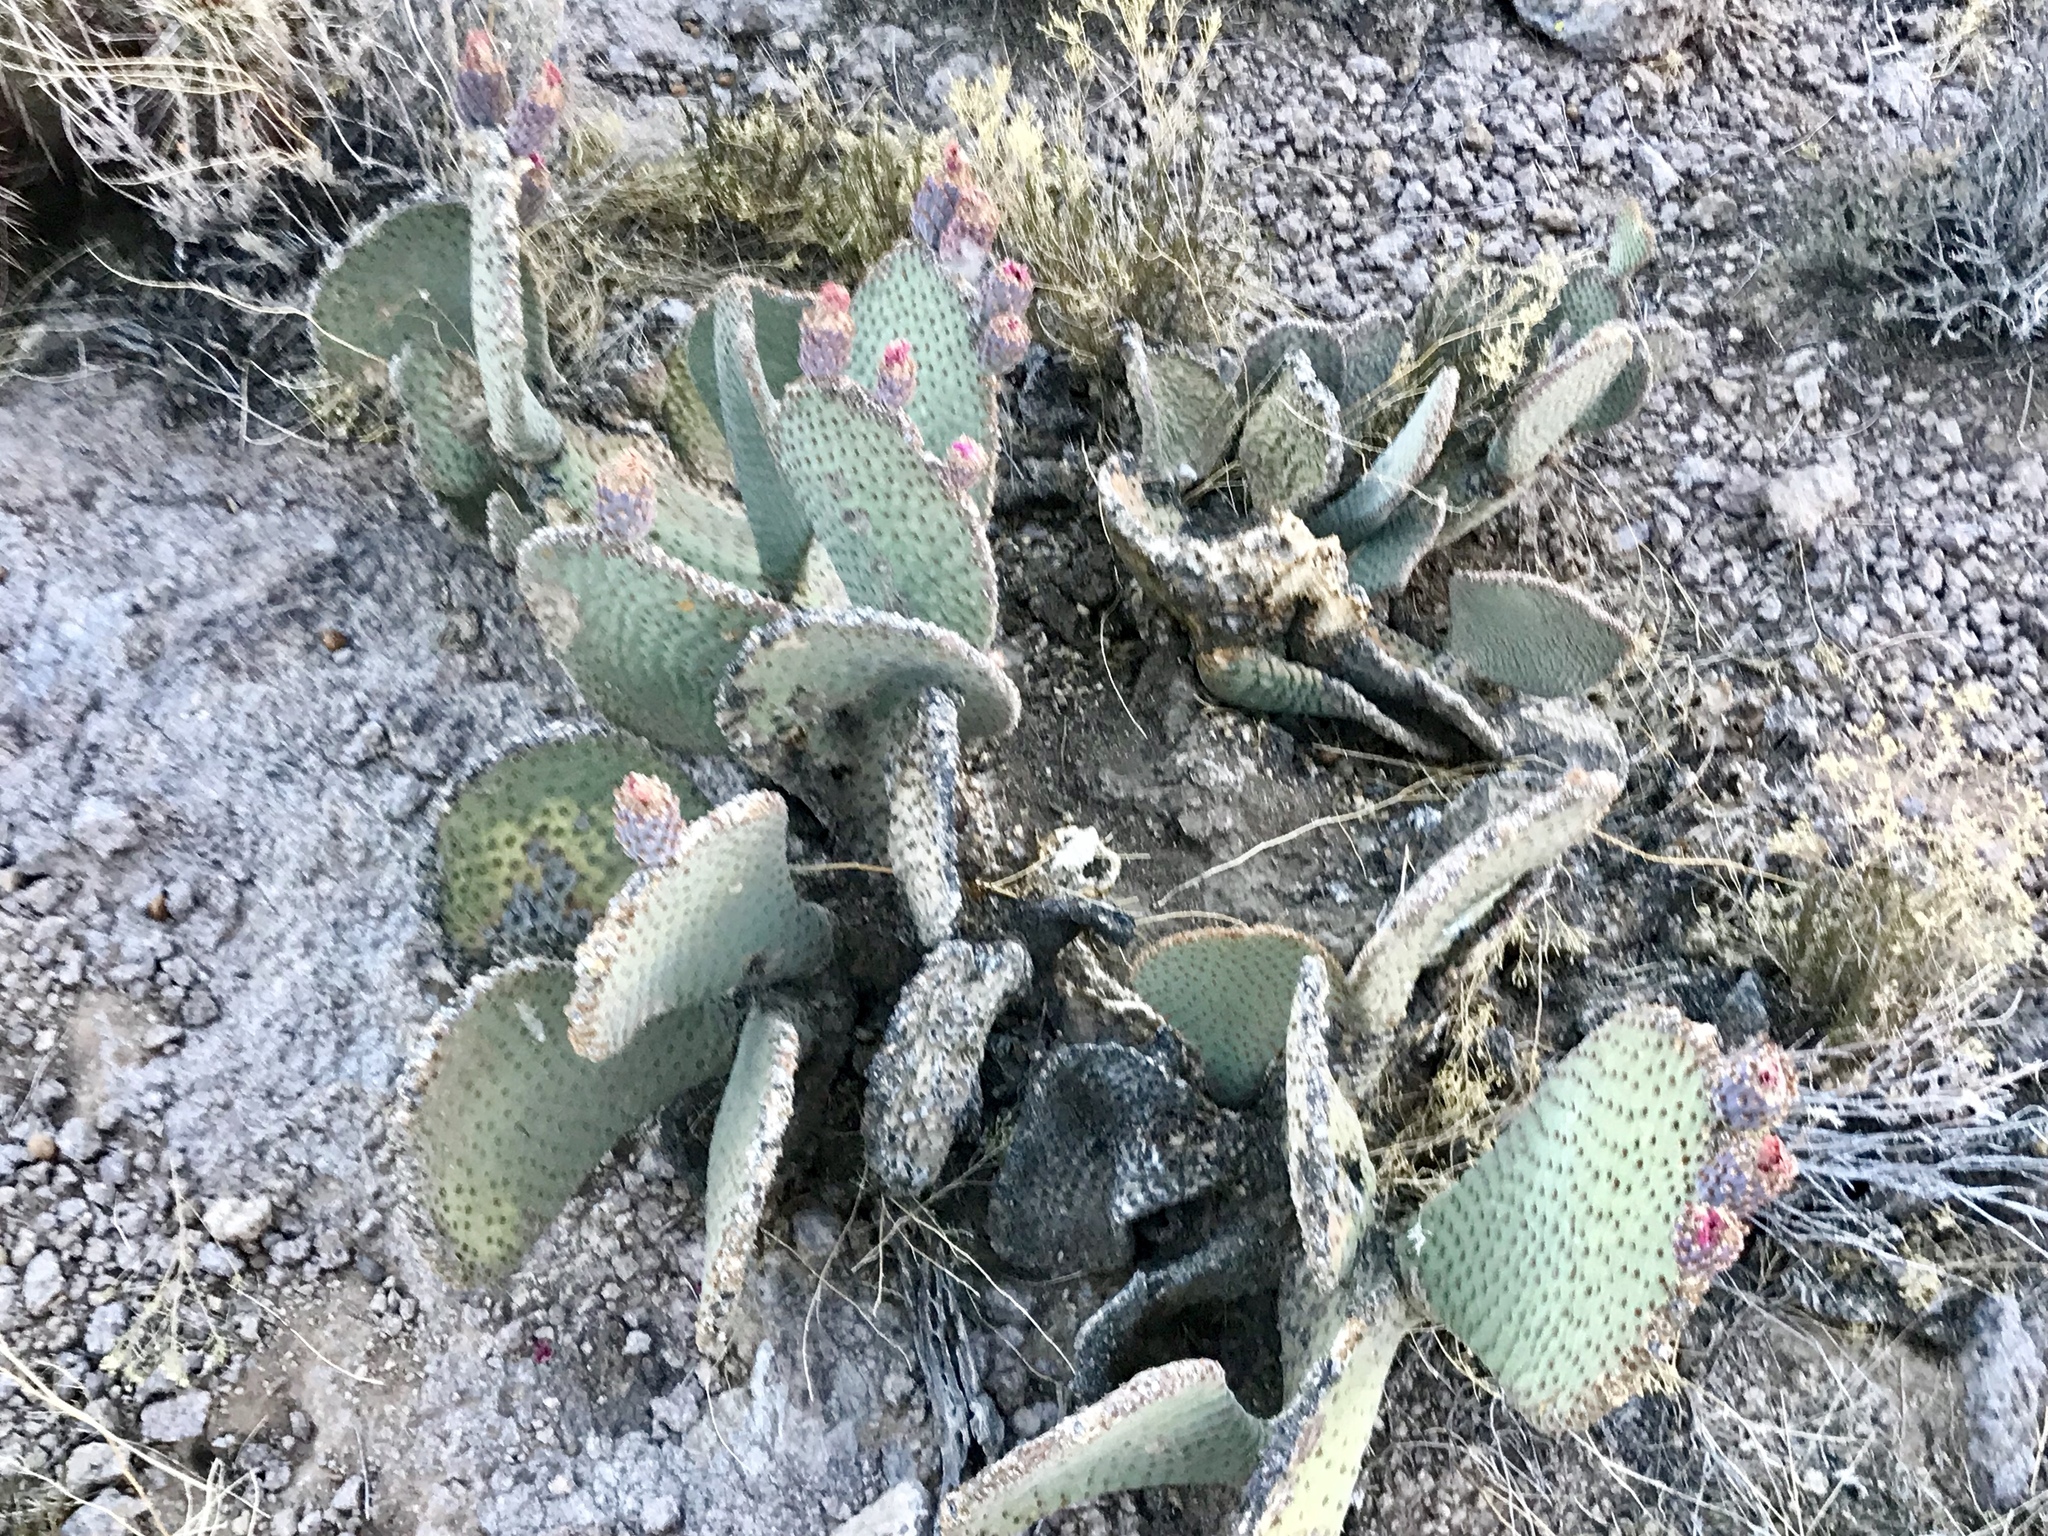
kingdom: Plantae
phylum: Tracheophyta
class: Magnoliopsida
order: Caryophyllales
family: Cactaceae
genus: Opuntia
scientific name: Opuntia basilaris
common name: Beavertail prickly-pear
